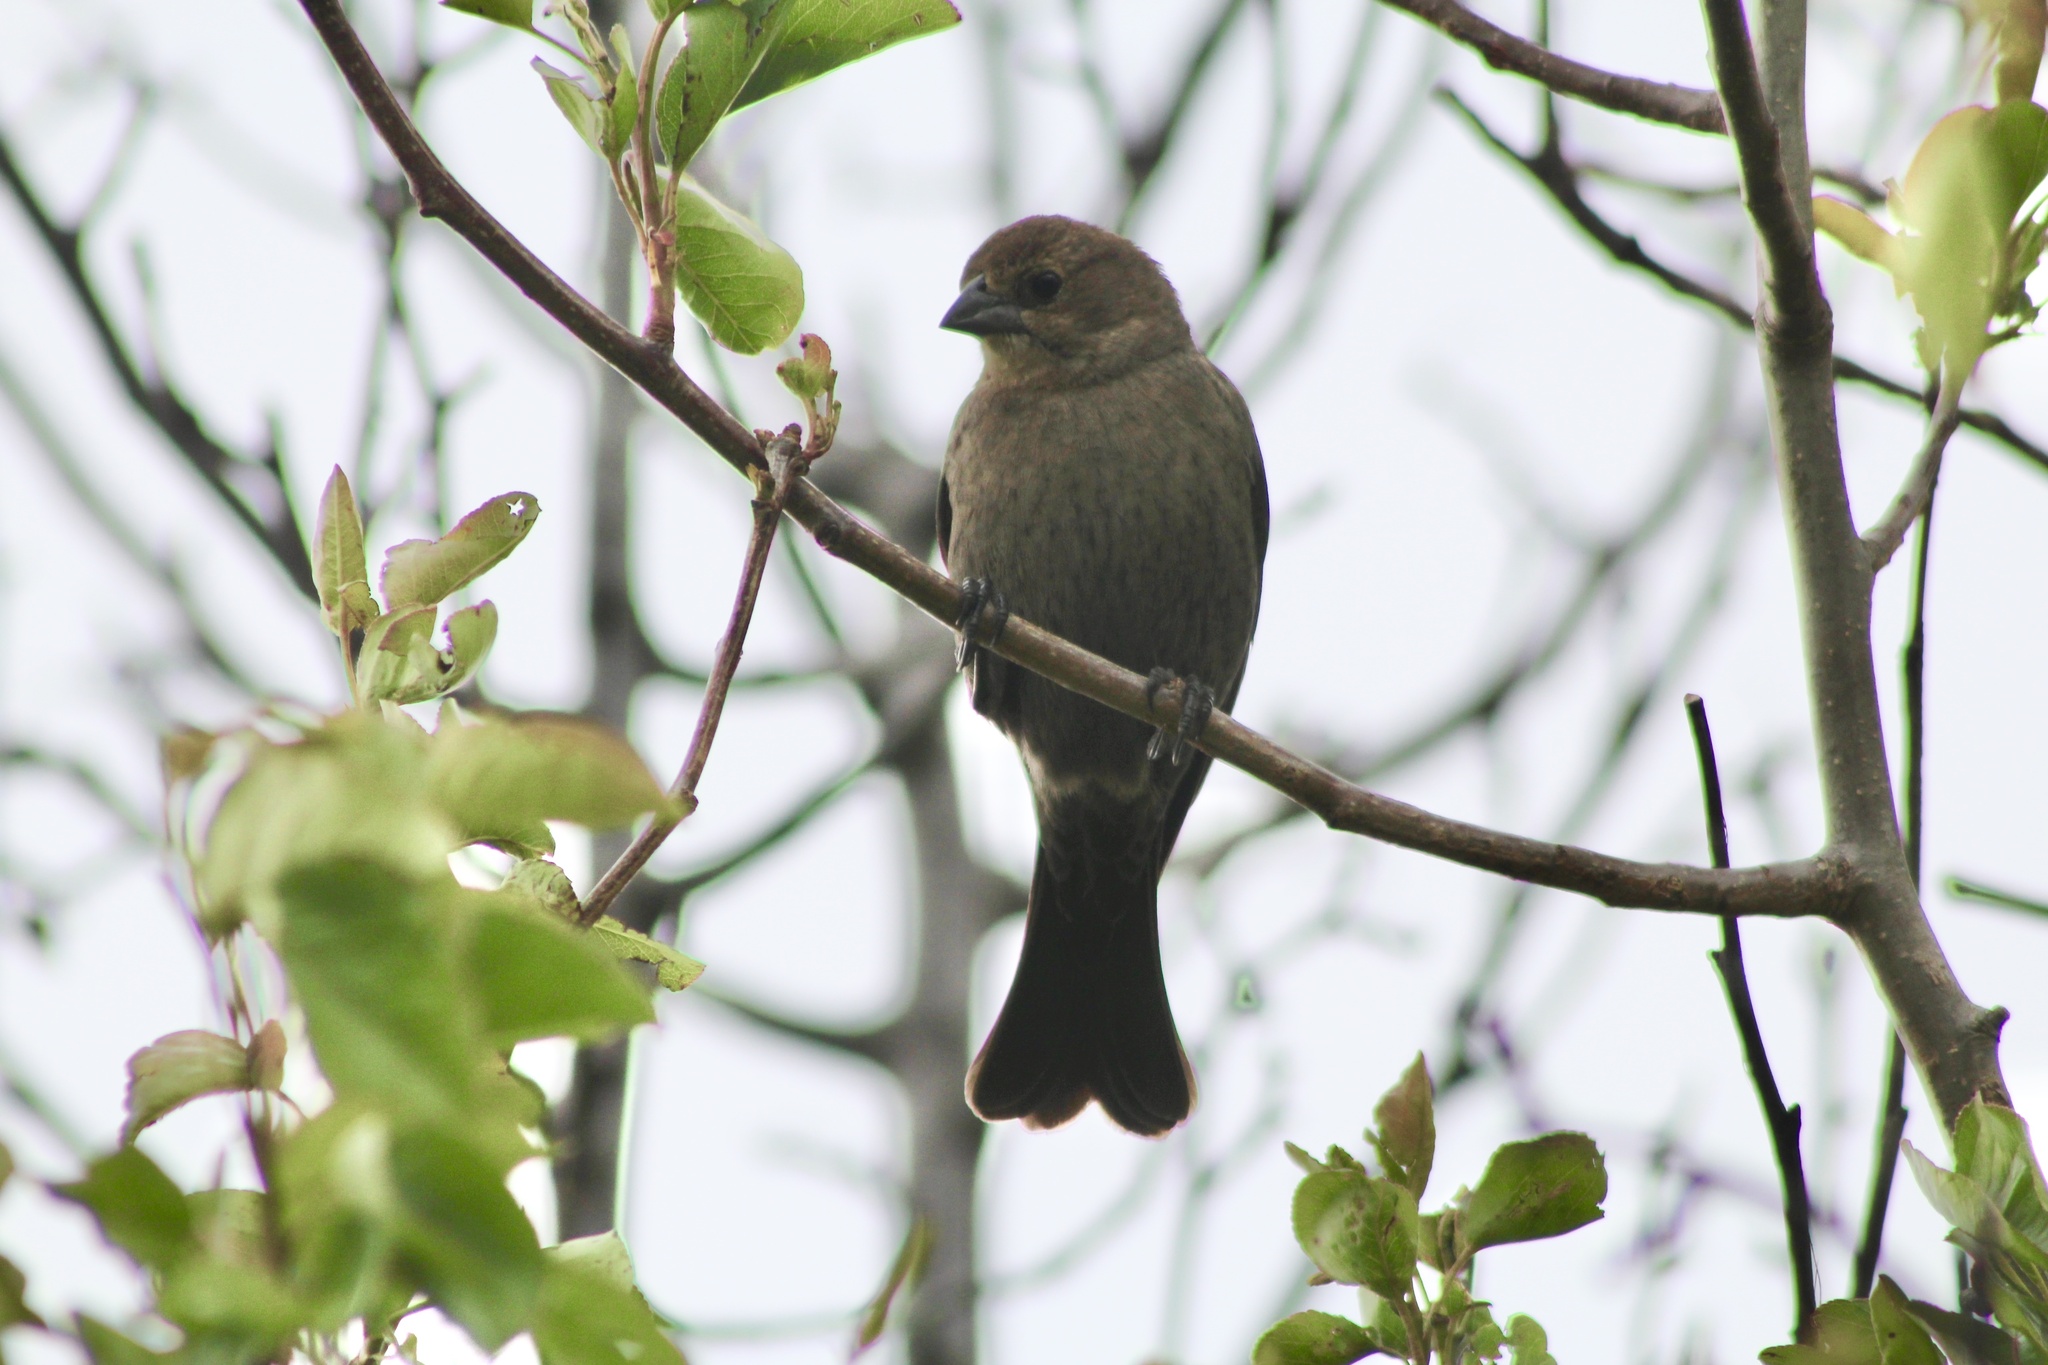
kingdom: Animalia
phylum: Chordata
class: Aves
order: Passeriformes
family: Icteridae
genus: Molothrus
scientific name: Molothrus ater
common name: Brown-headed cowbird
